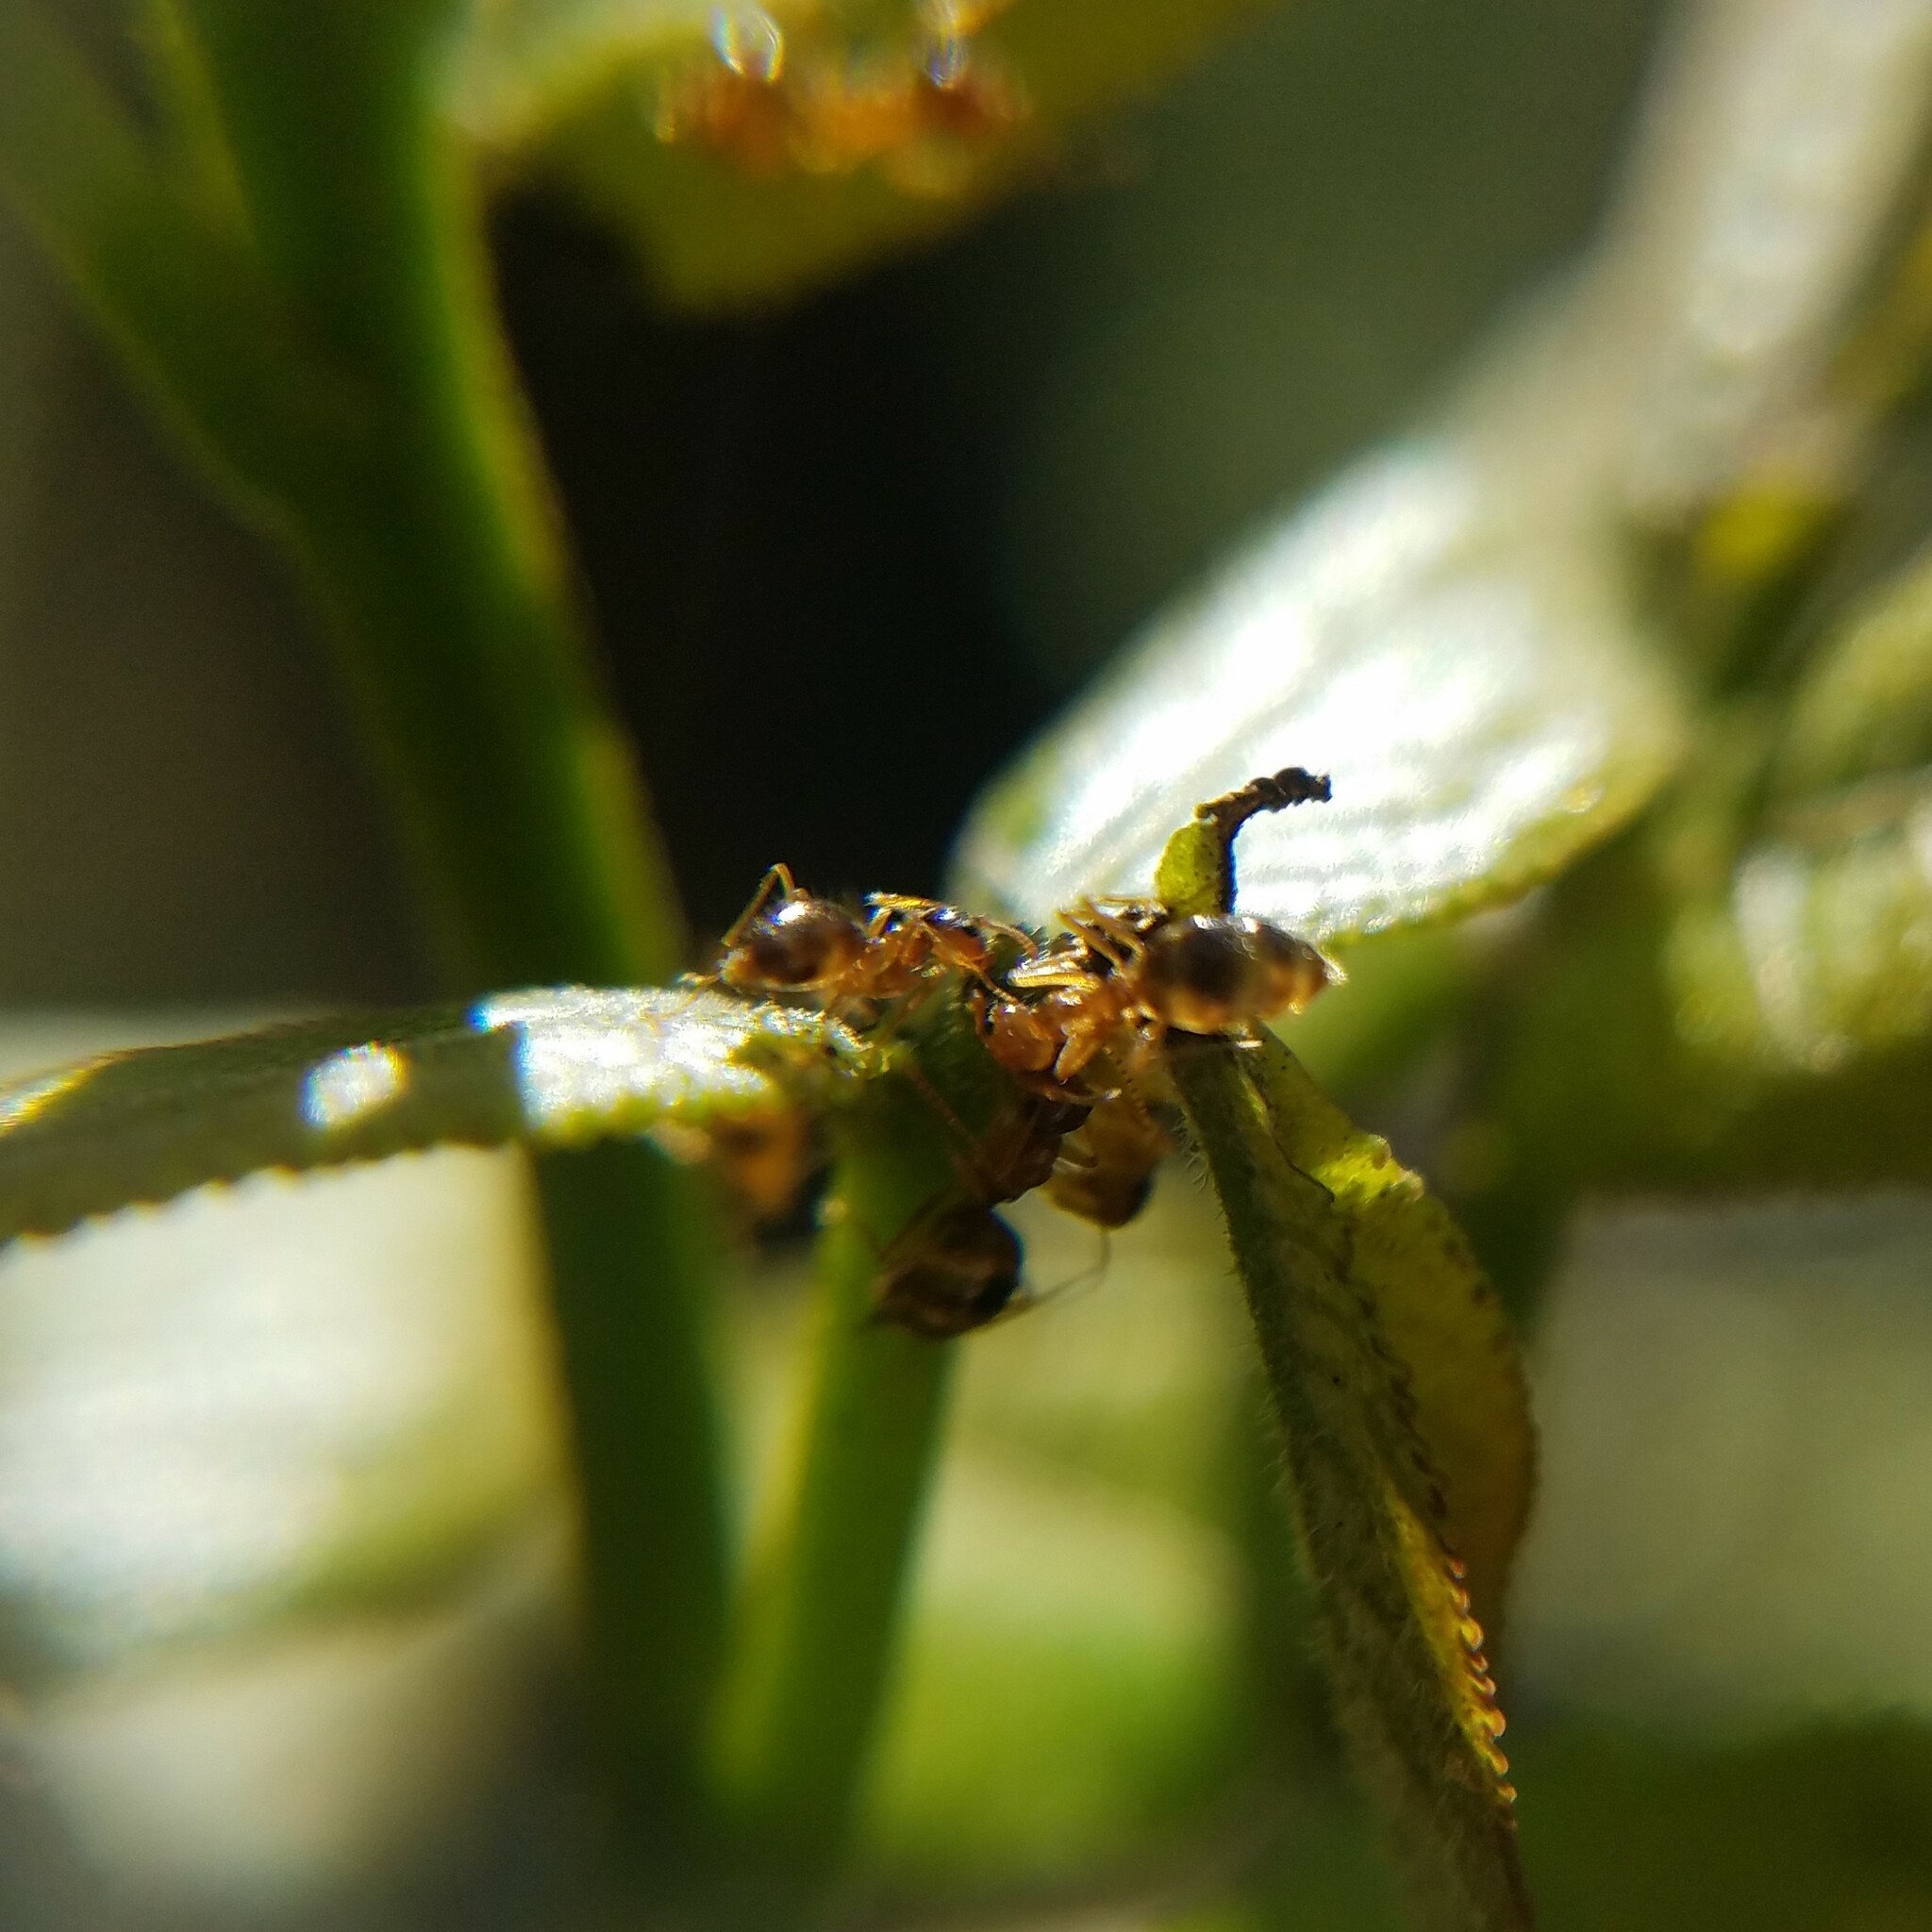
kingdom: Animalia
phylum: Arthropoda
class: Insecta
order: Hymenoptera
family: Formicidae
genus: Prenolepis
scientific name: Prenolepis imparis
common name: Small honey ant
